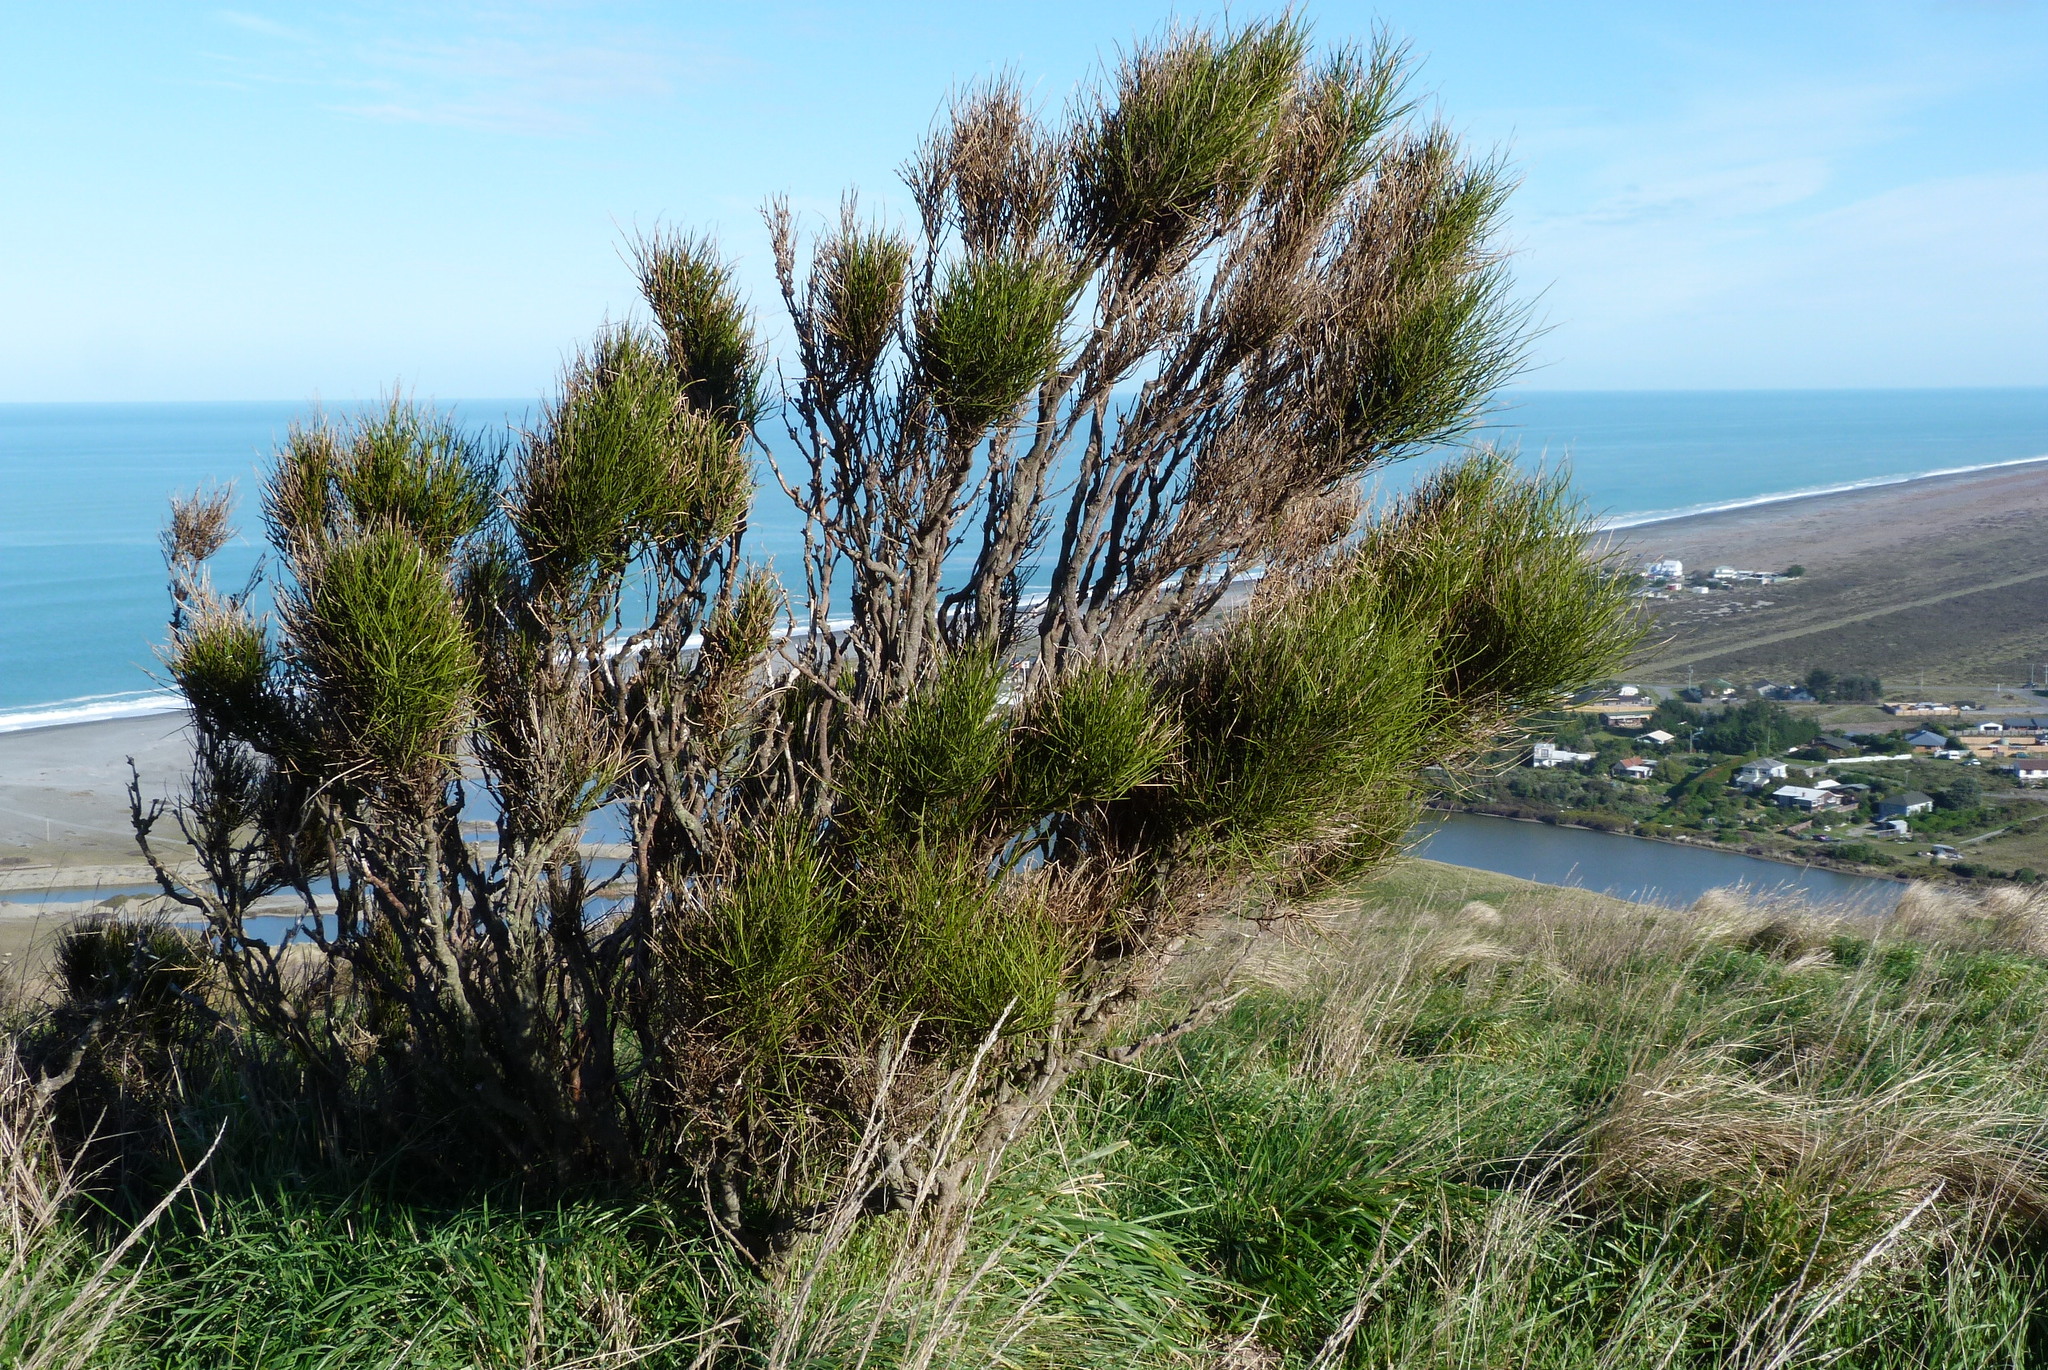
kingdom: Plantae
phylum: Tracheophyta
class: Magnoliopsida
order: Fabales
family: Fabaceae
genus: Carmichaelia
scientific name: Carmichaelia australis
